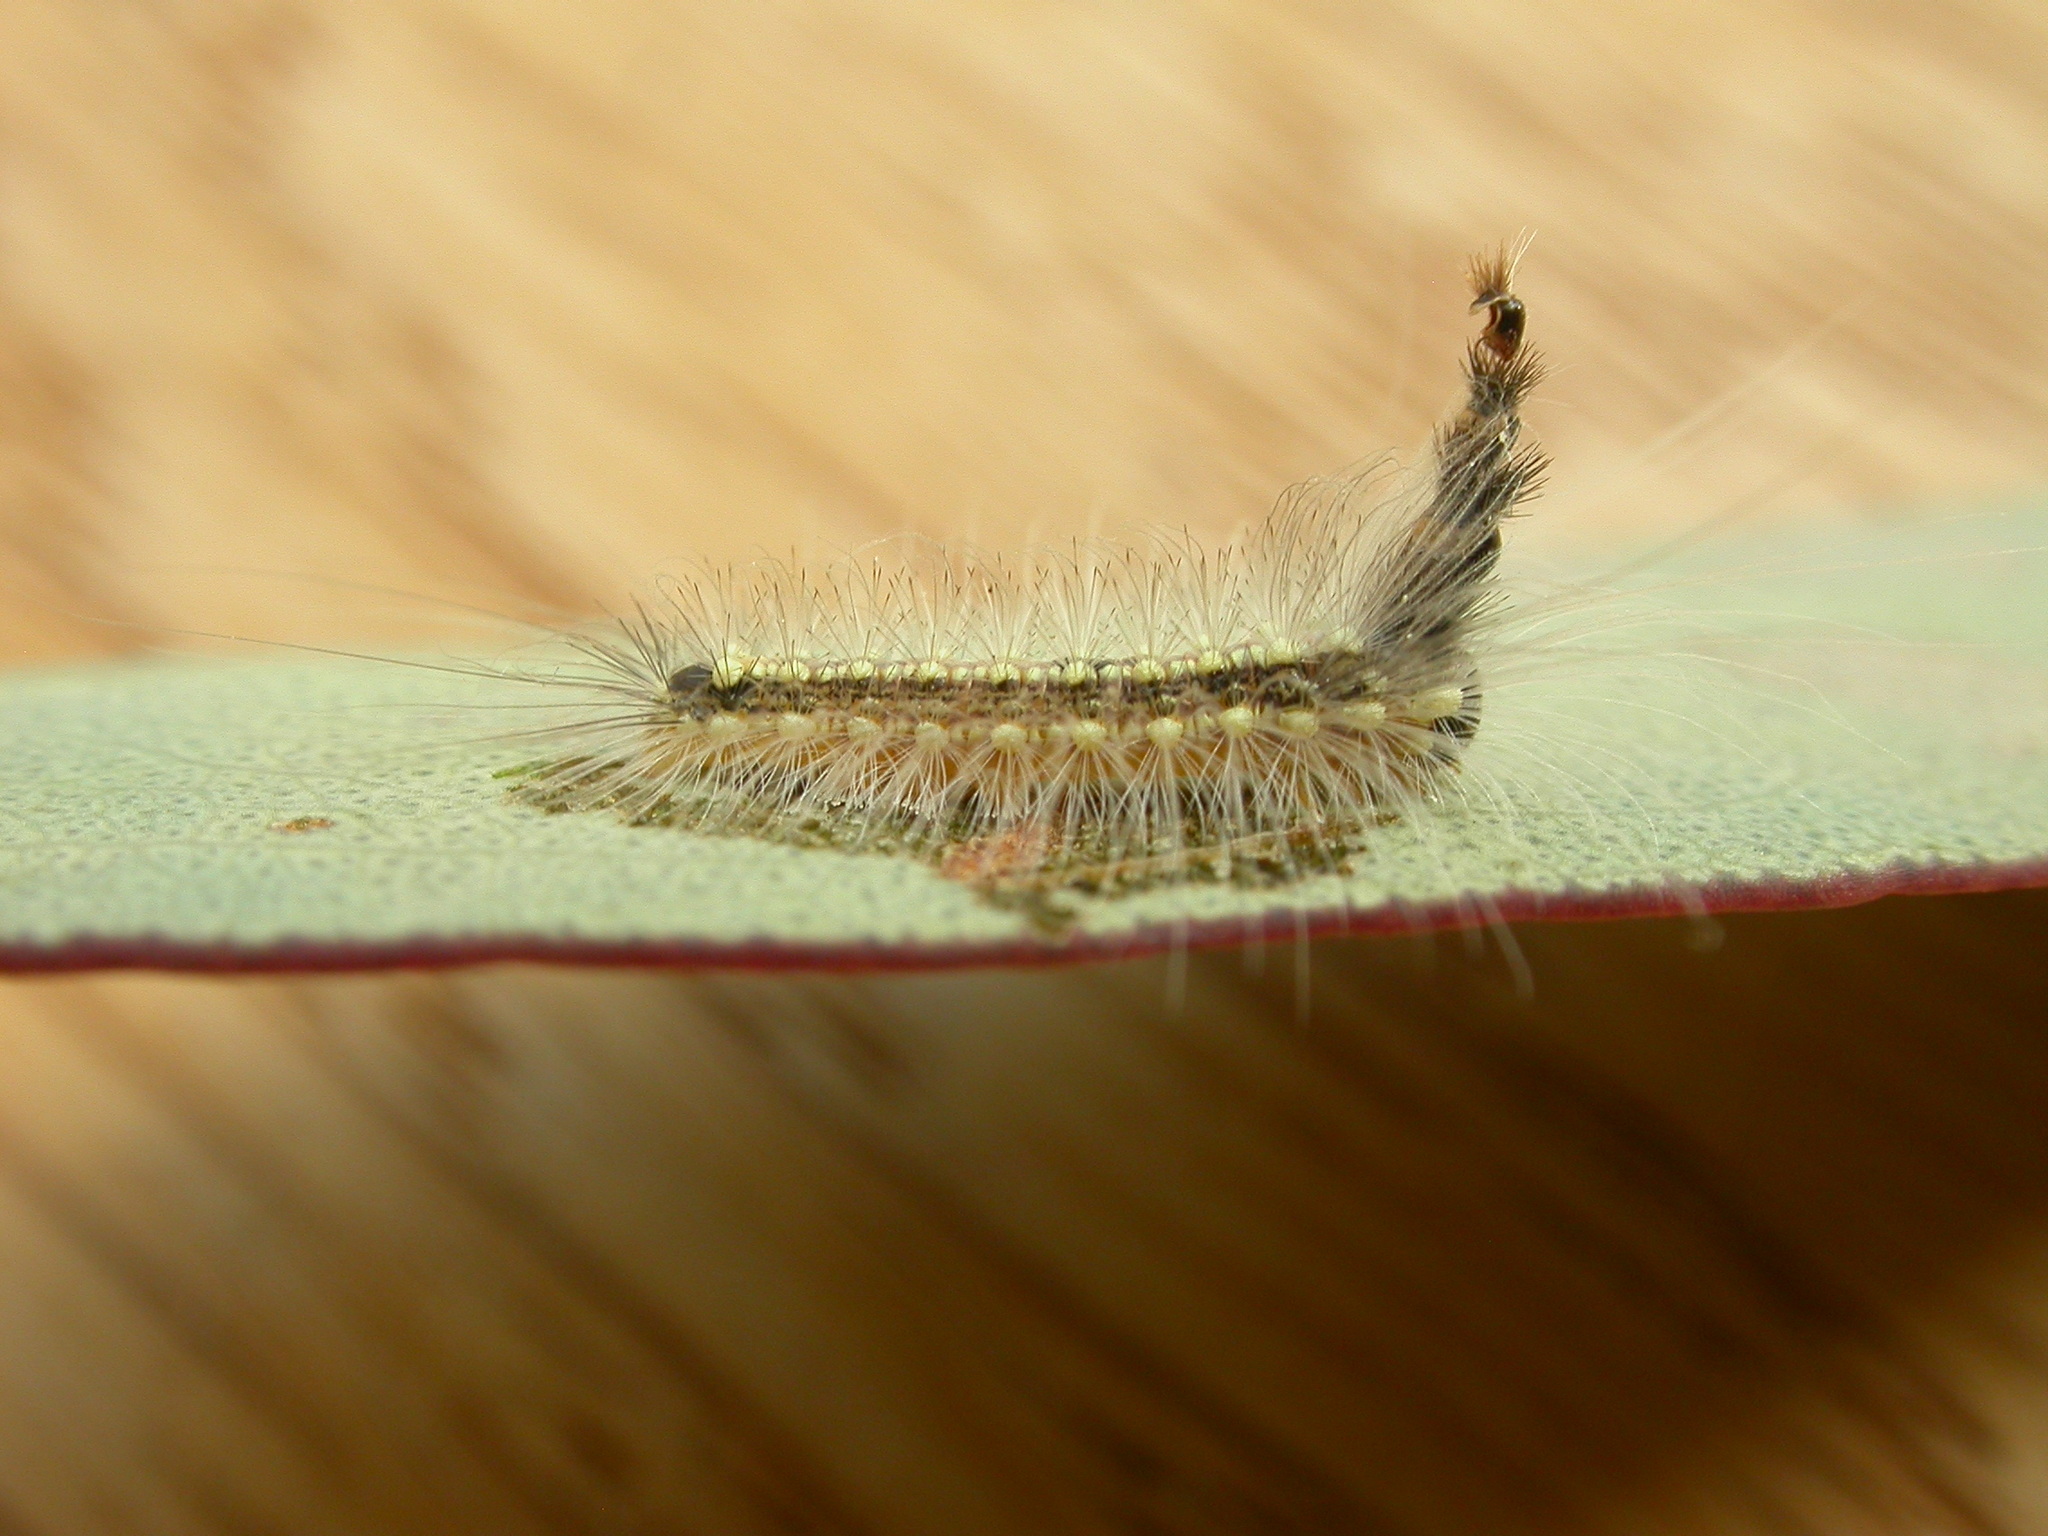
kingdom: Animalia
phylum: Arthropoda
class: Insecta
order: Lepidoptera
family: Nolidae
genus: Uraba
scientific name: Uraba lugens
